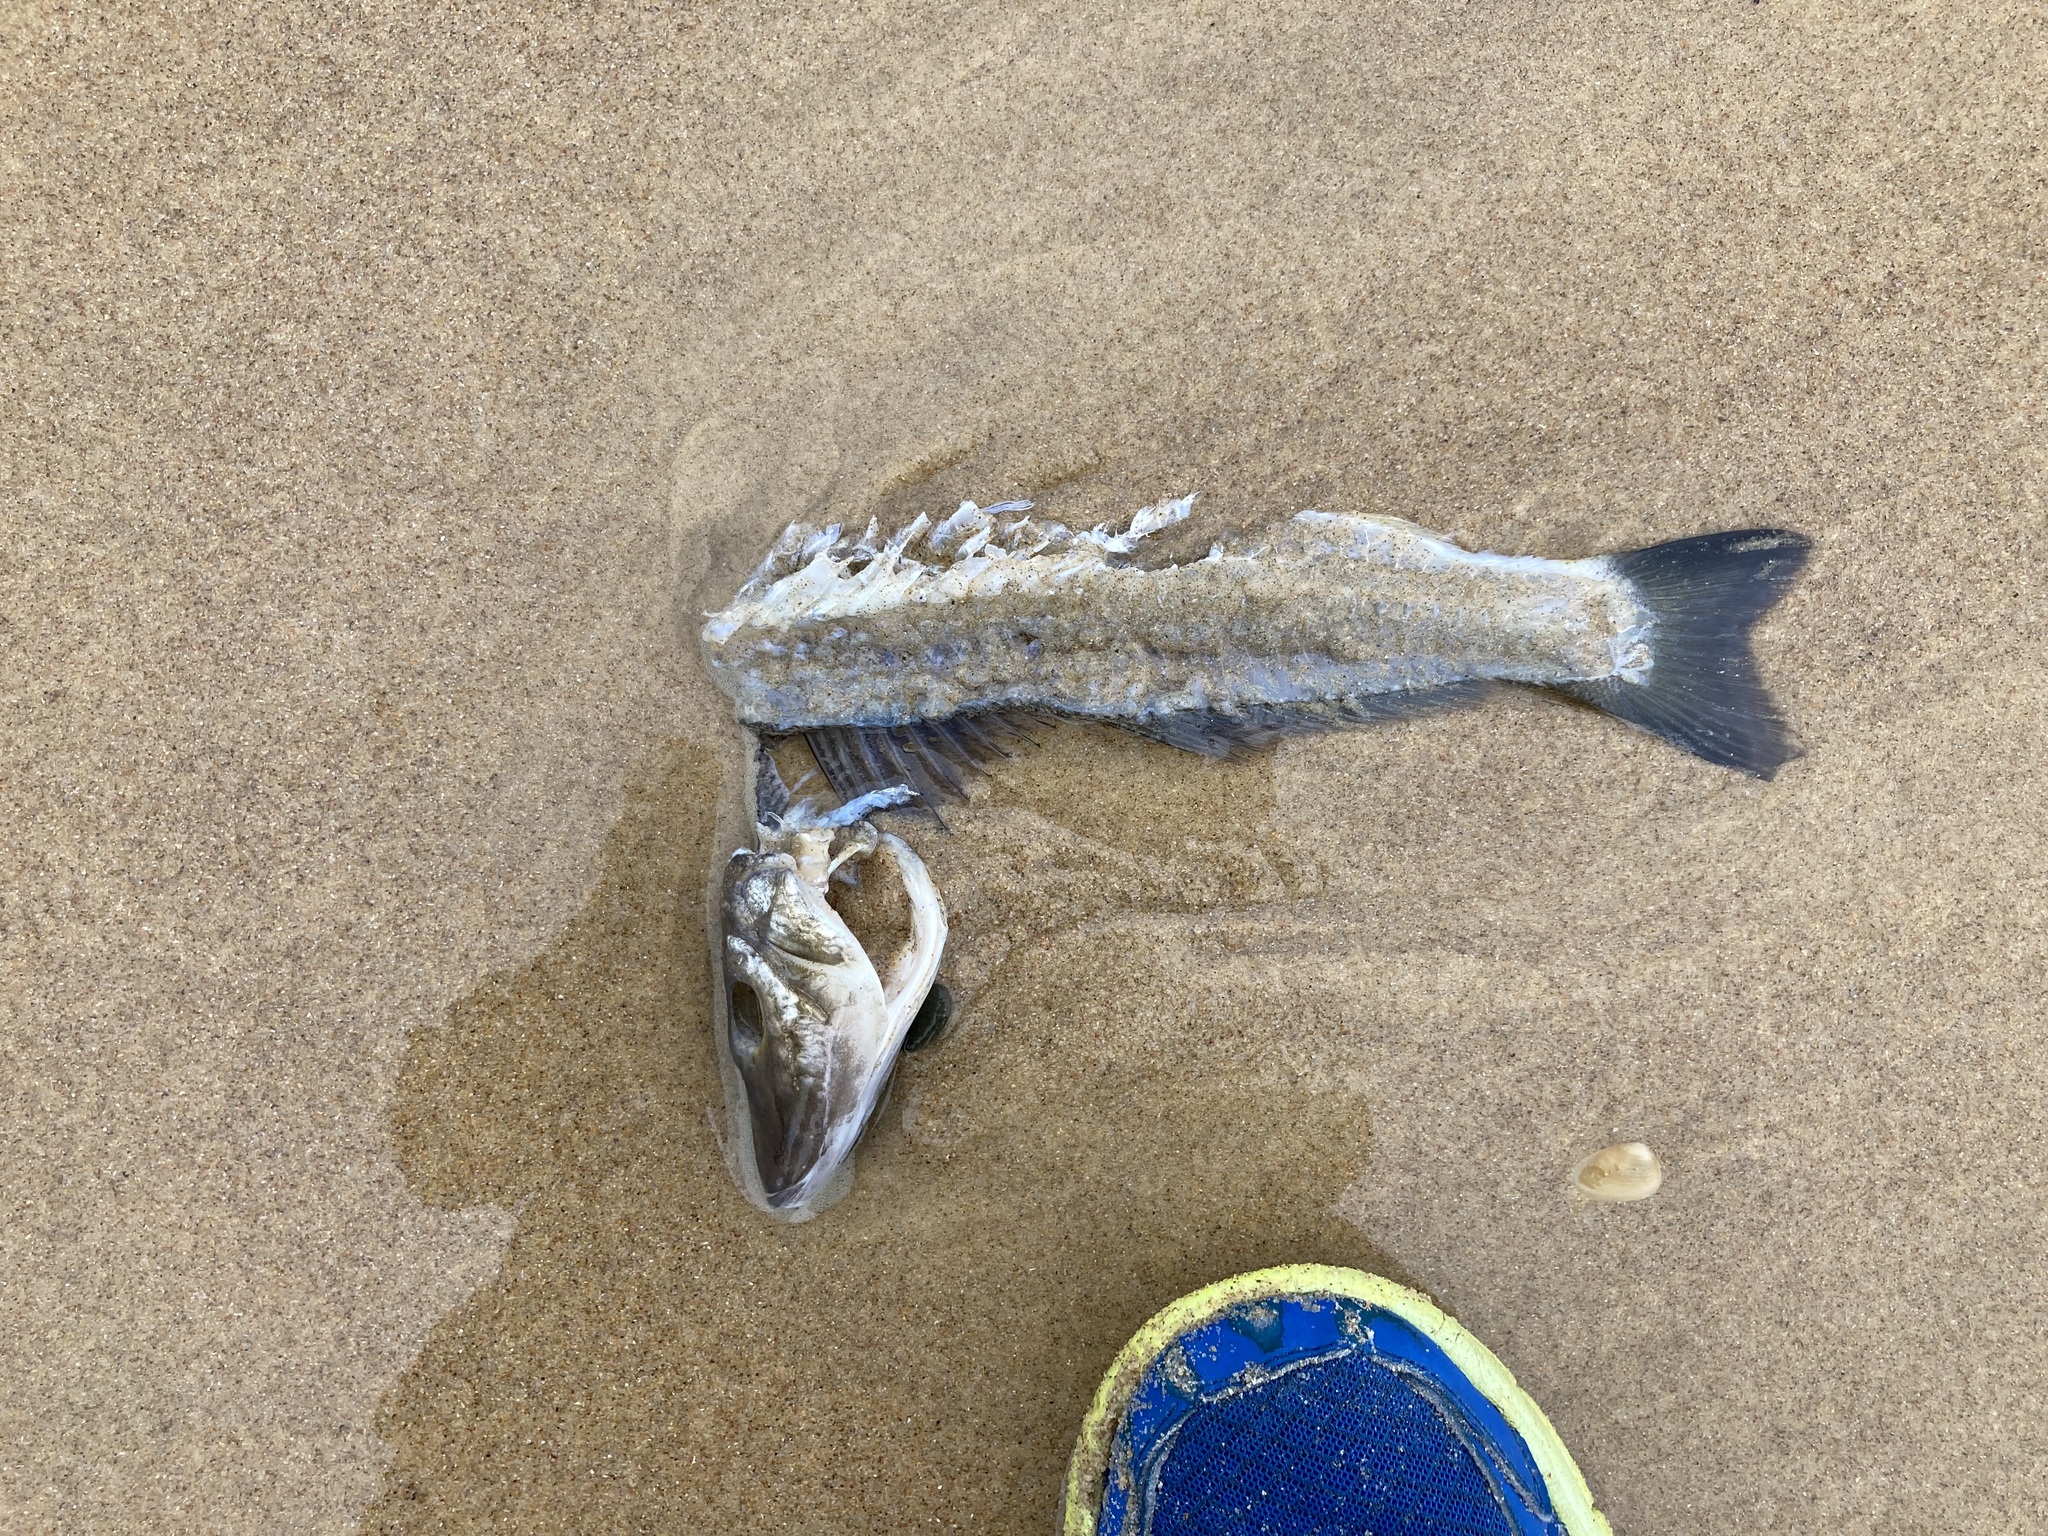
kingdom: Animalia
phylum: Chordata
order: Perciformes
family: Sillaginidae
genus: Sillago
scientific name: Sillago ciliata
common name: Sand sillago
